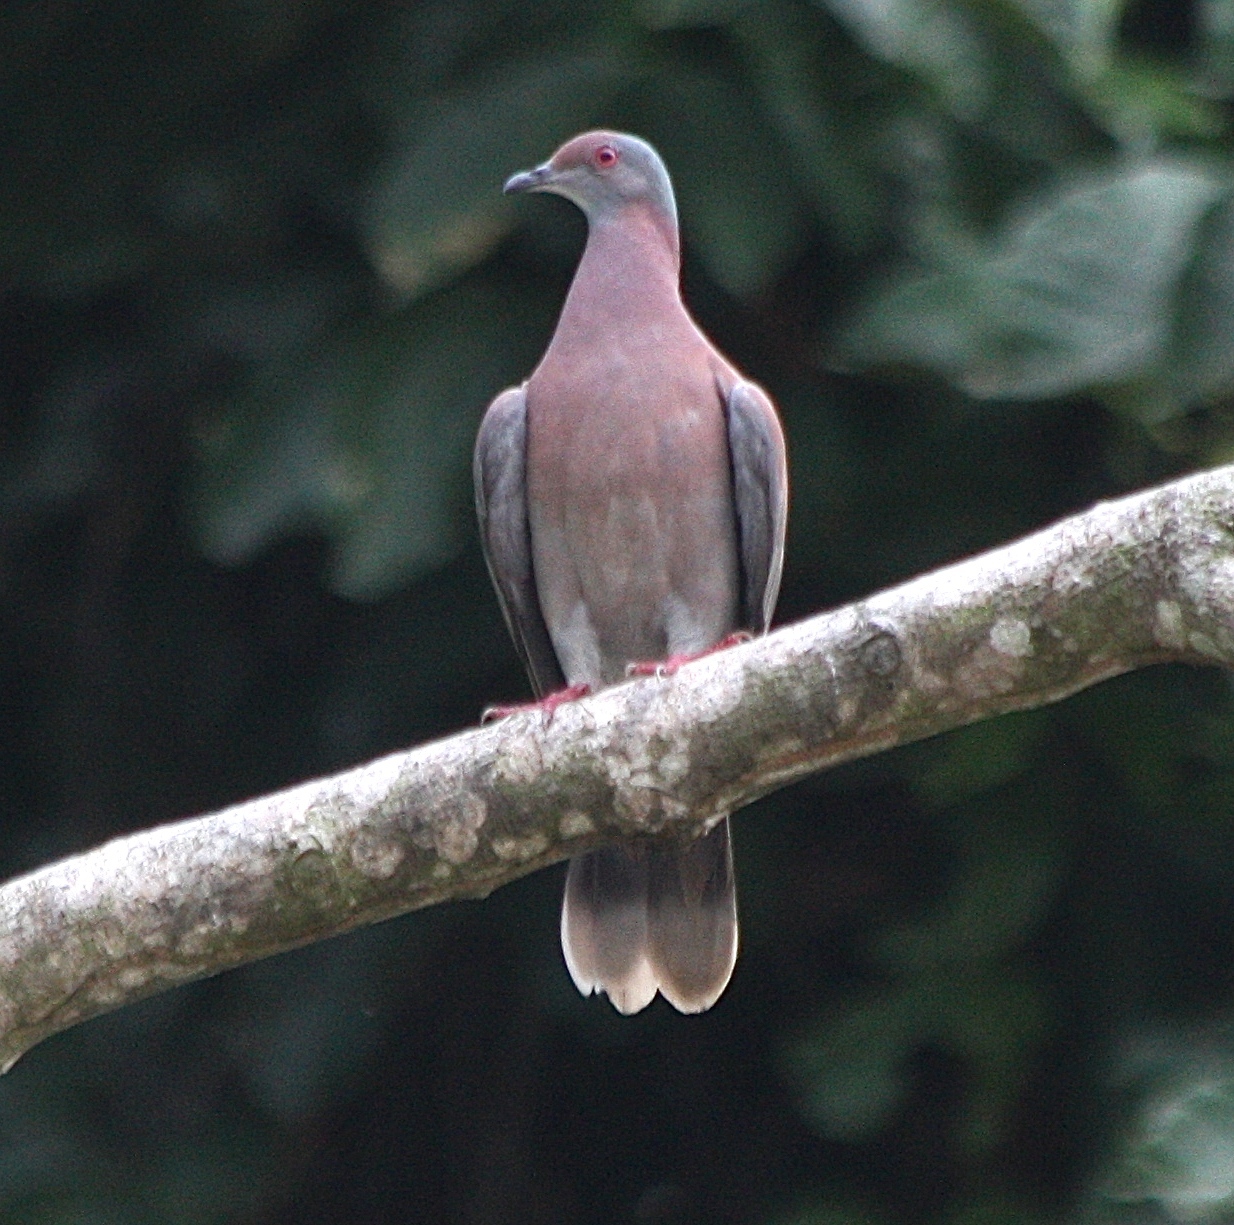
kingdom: Animalia
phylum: Chordata
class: Aves
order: Columbiformes
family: Columbidae
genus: Patagioenas
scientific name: Patagioenas cayennensis
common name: Pale-vented pigeon
